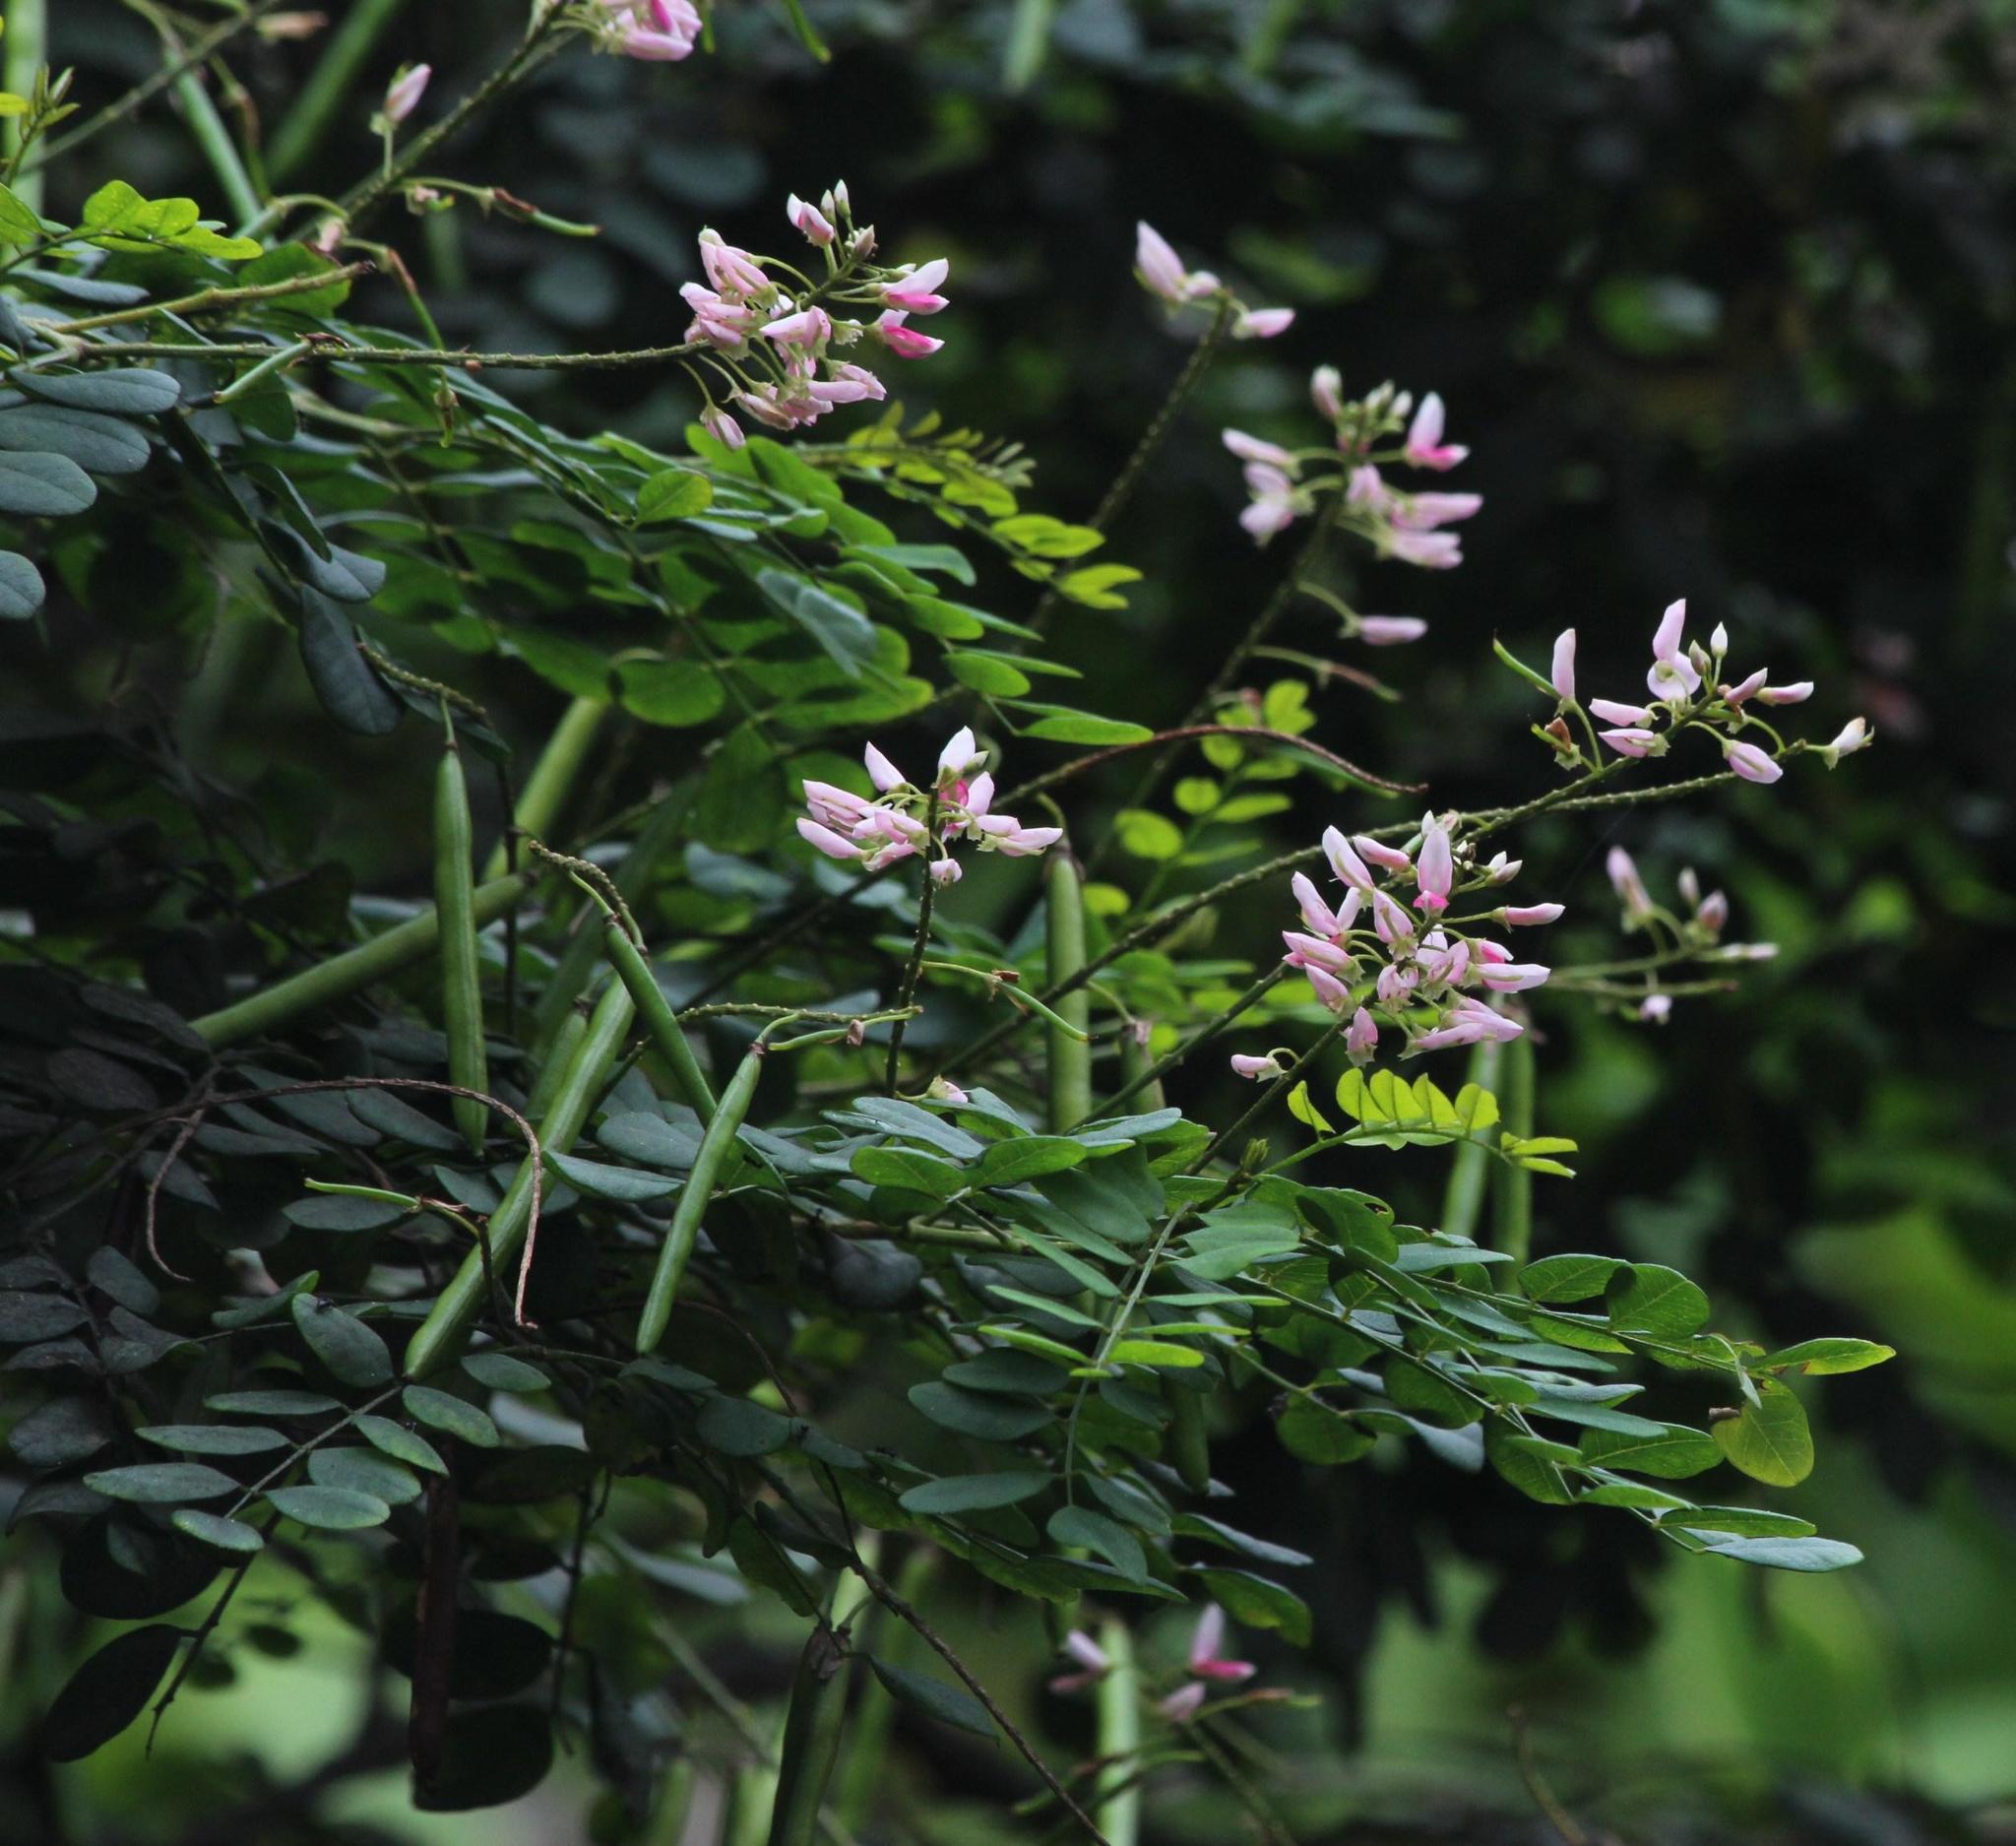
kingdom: Plantae
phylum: Tracheophyta
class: Magnoliopsida
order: Fabales
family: Fabaceae
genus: Indigofera
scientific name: Indigofera jucunda
